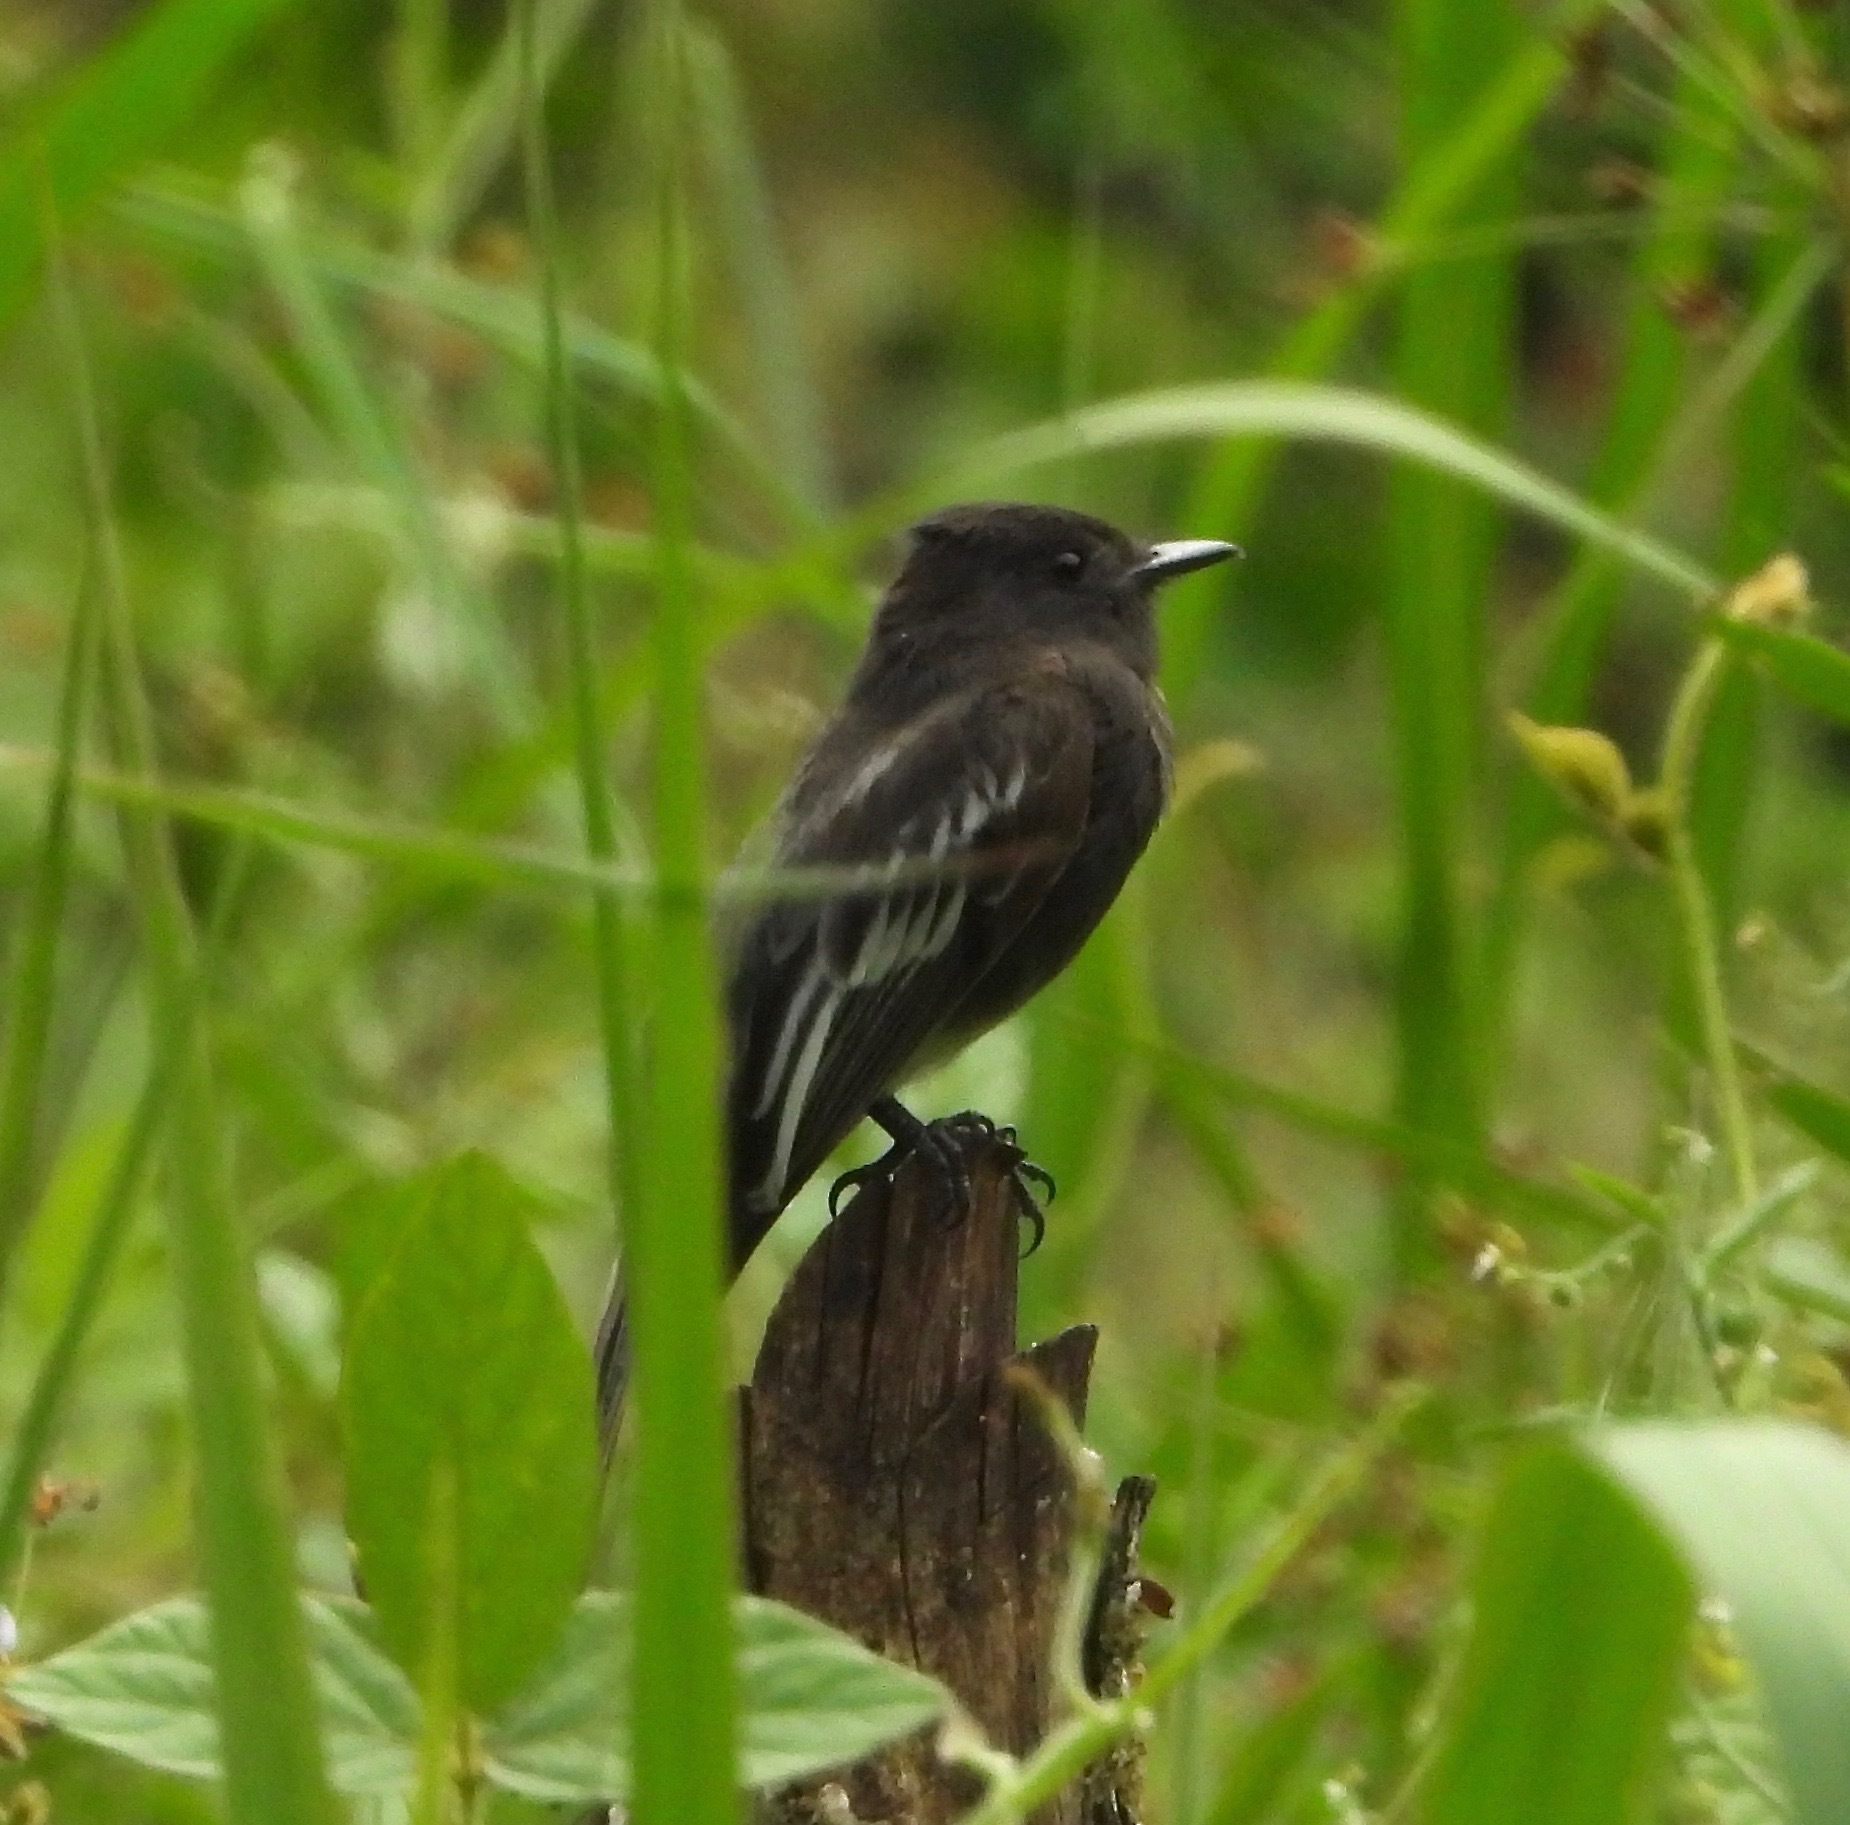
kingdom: Animalia
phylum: Chordata
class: Aves
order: Passeriformes
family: Tyrannidae
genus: Sayornis
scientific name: Sayornis nigricans
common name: Black phoebe
